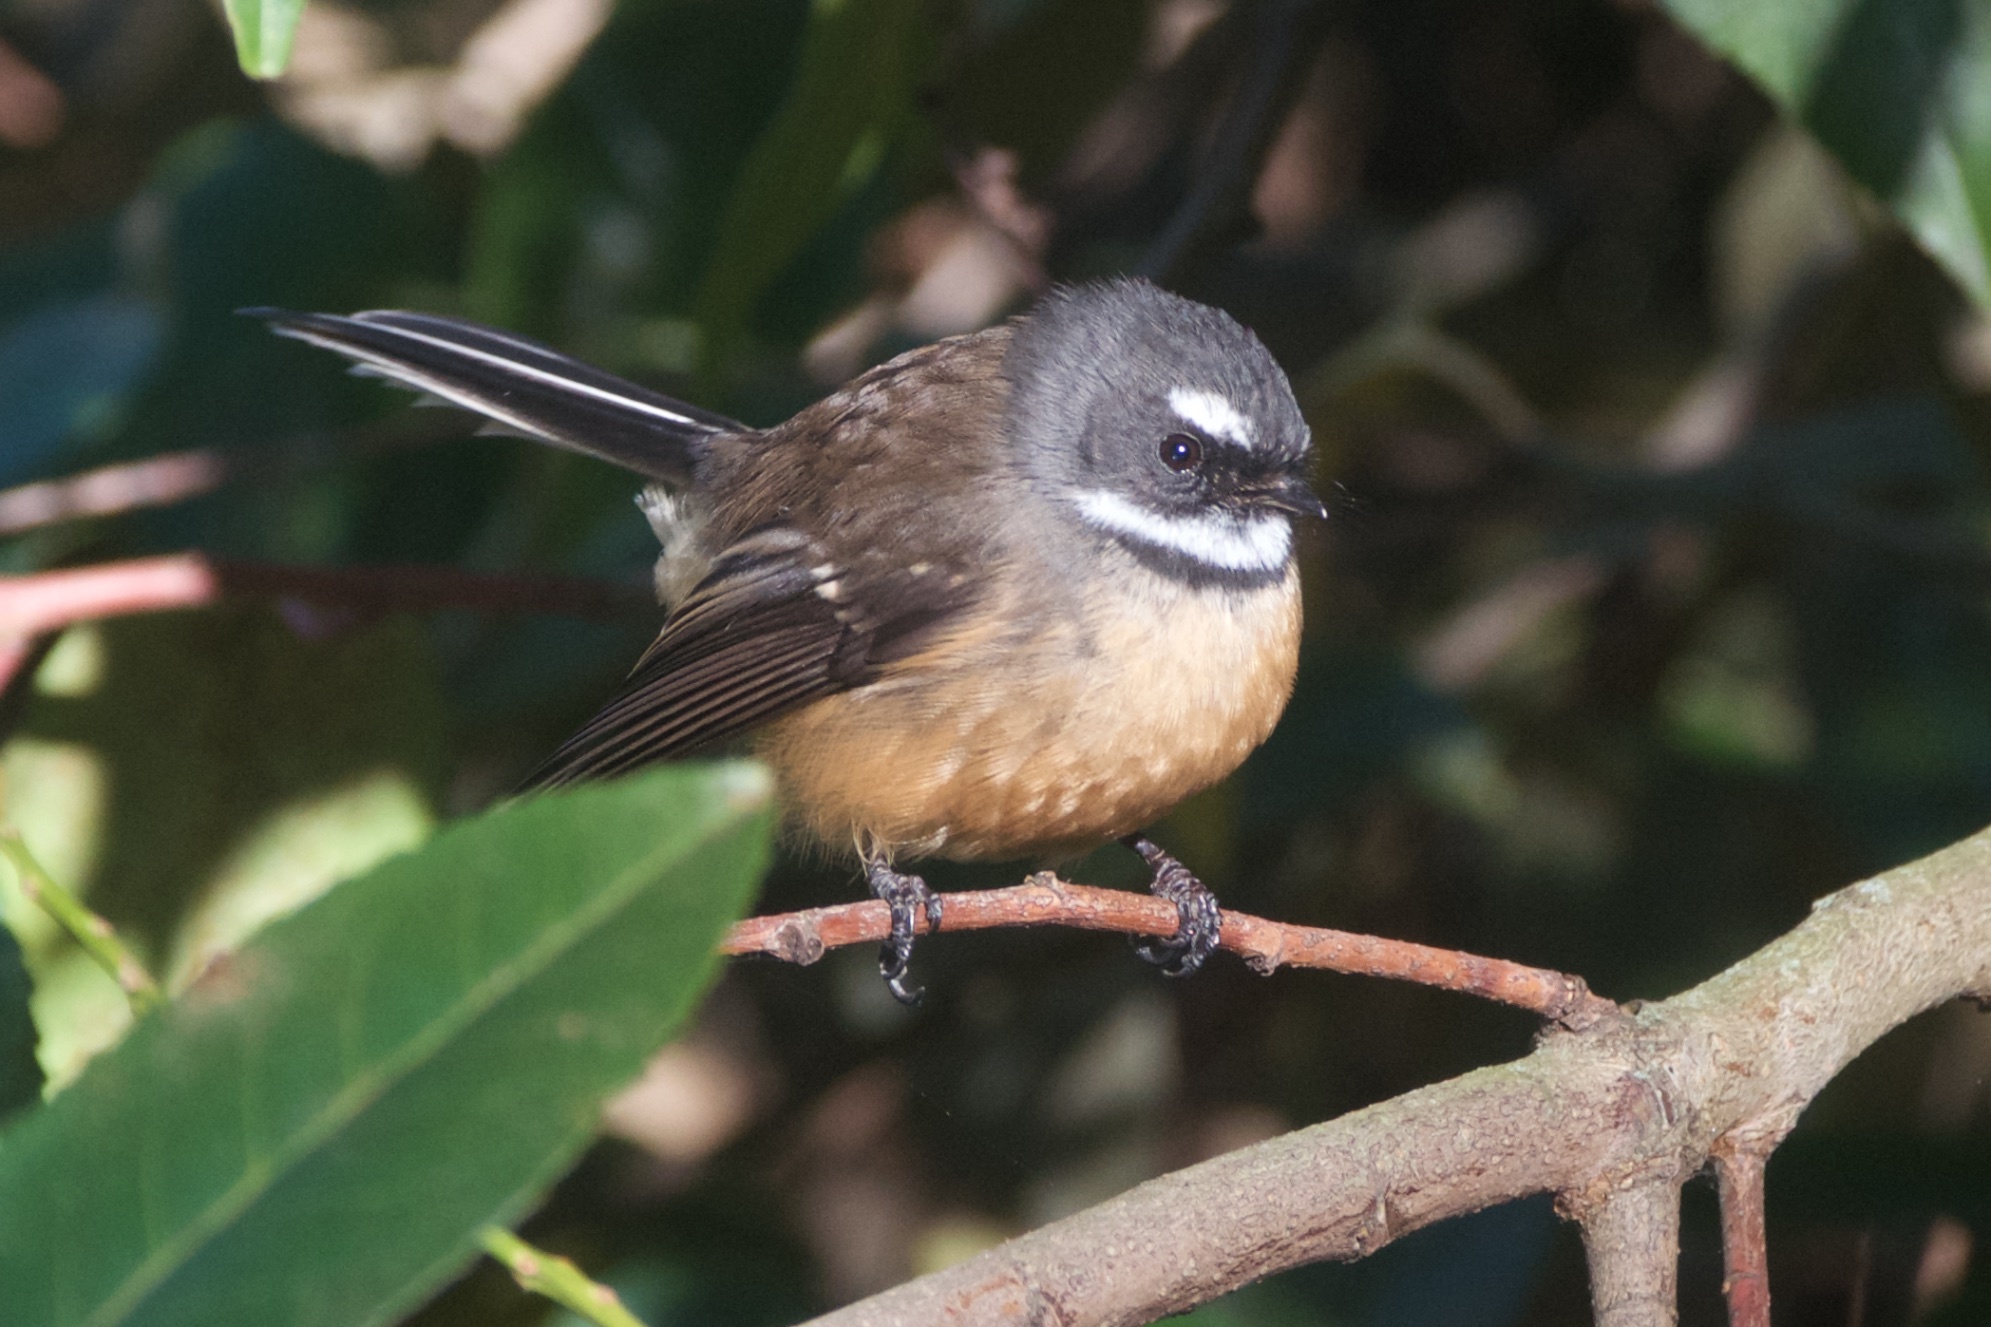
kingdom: Animalia
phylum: Chordata
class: Aves
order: Passeriformes
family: Rhipiduridae
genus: Rhipidura
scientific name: Rhipidura fuliginosa
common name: New zealand fantail
